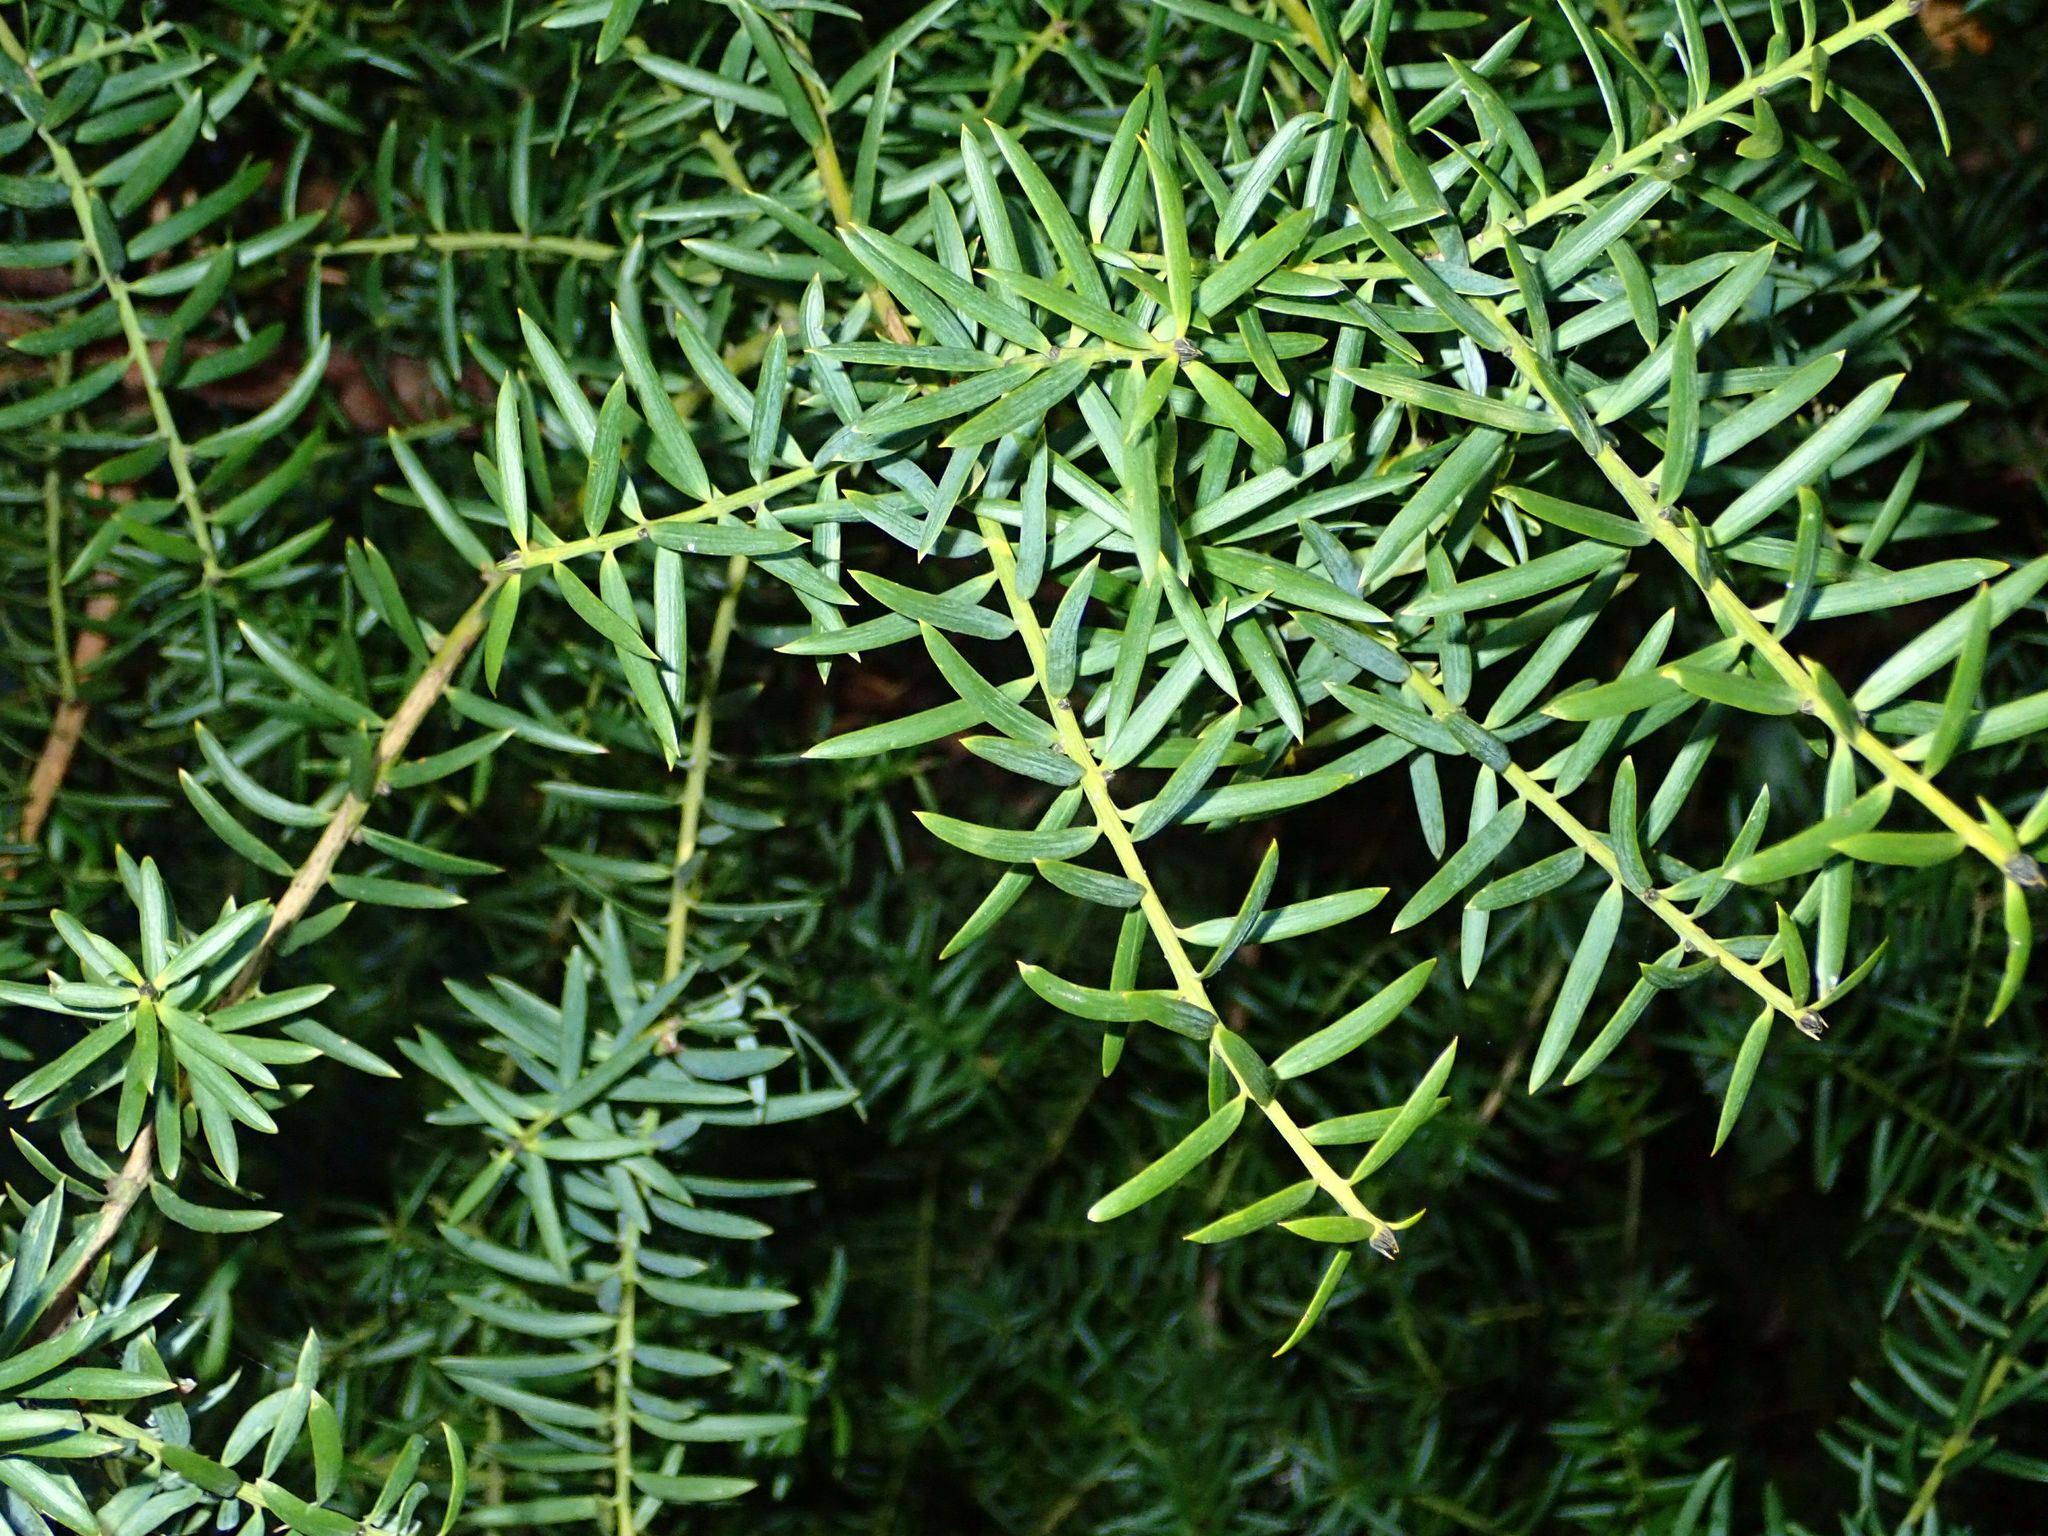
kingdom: Plantae
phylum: Tracheophyta
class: Pinopsida
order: Pinales
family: Podocarpaceae
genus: Podocarpus
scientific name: Podocarpus totara
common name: Totara
